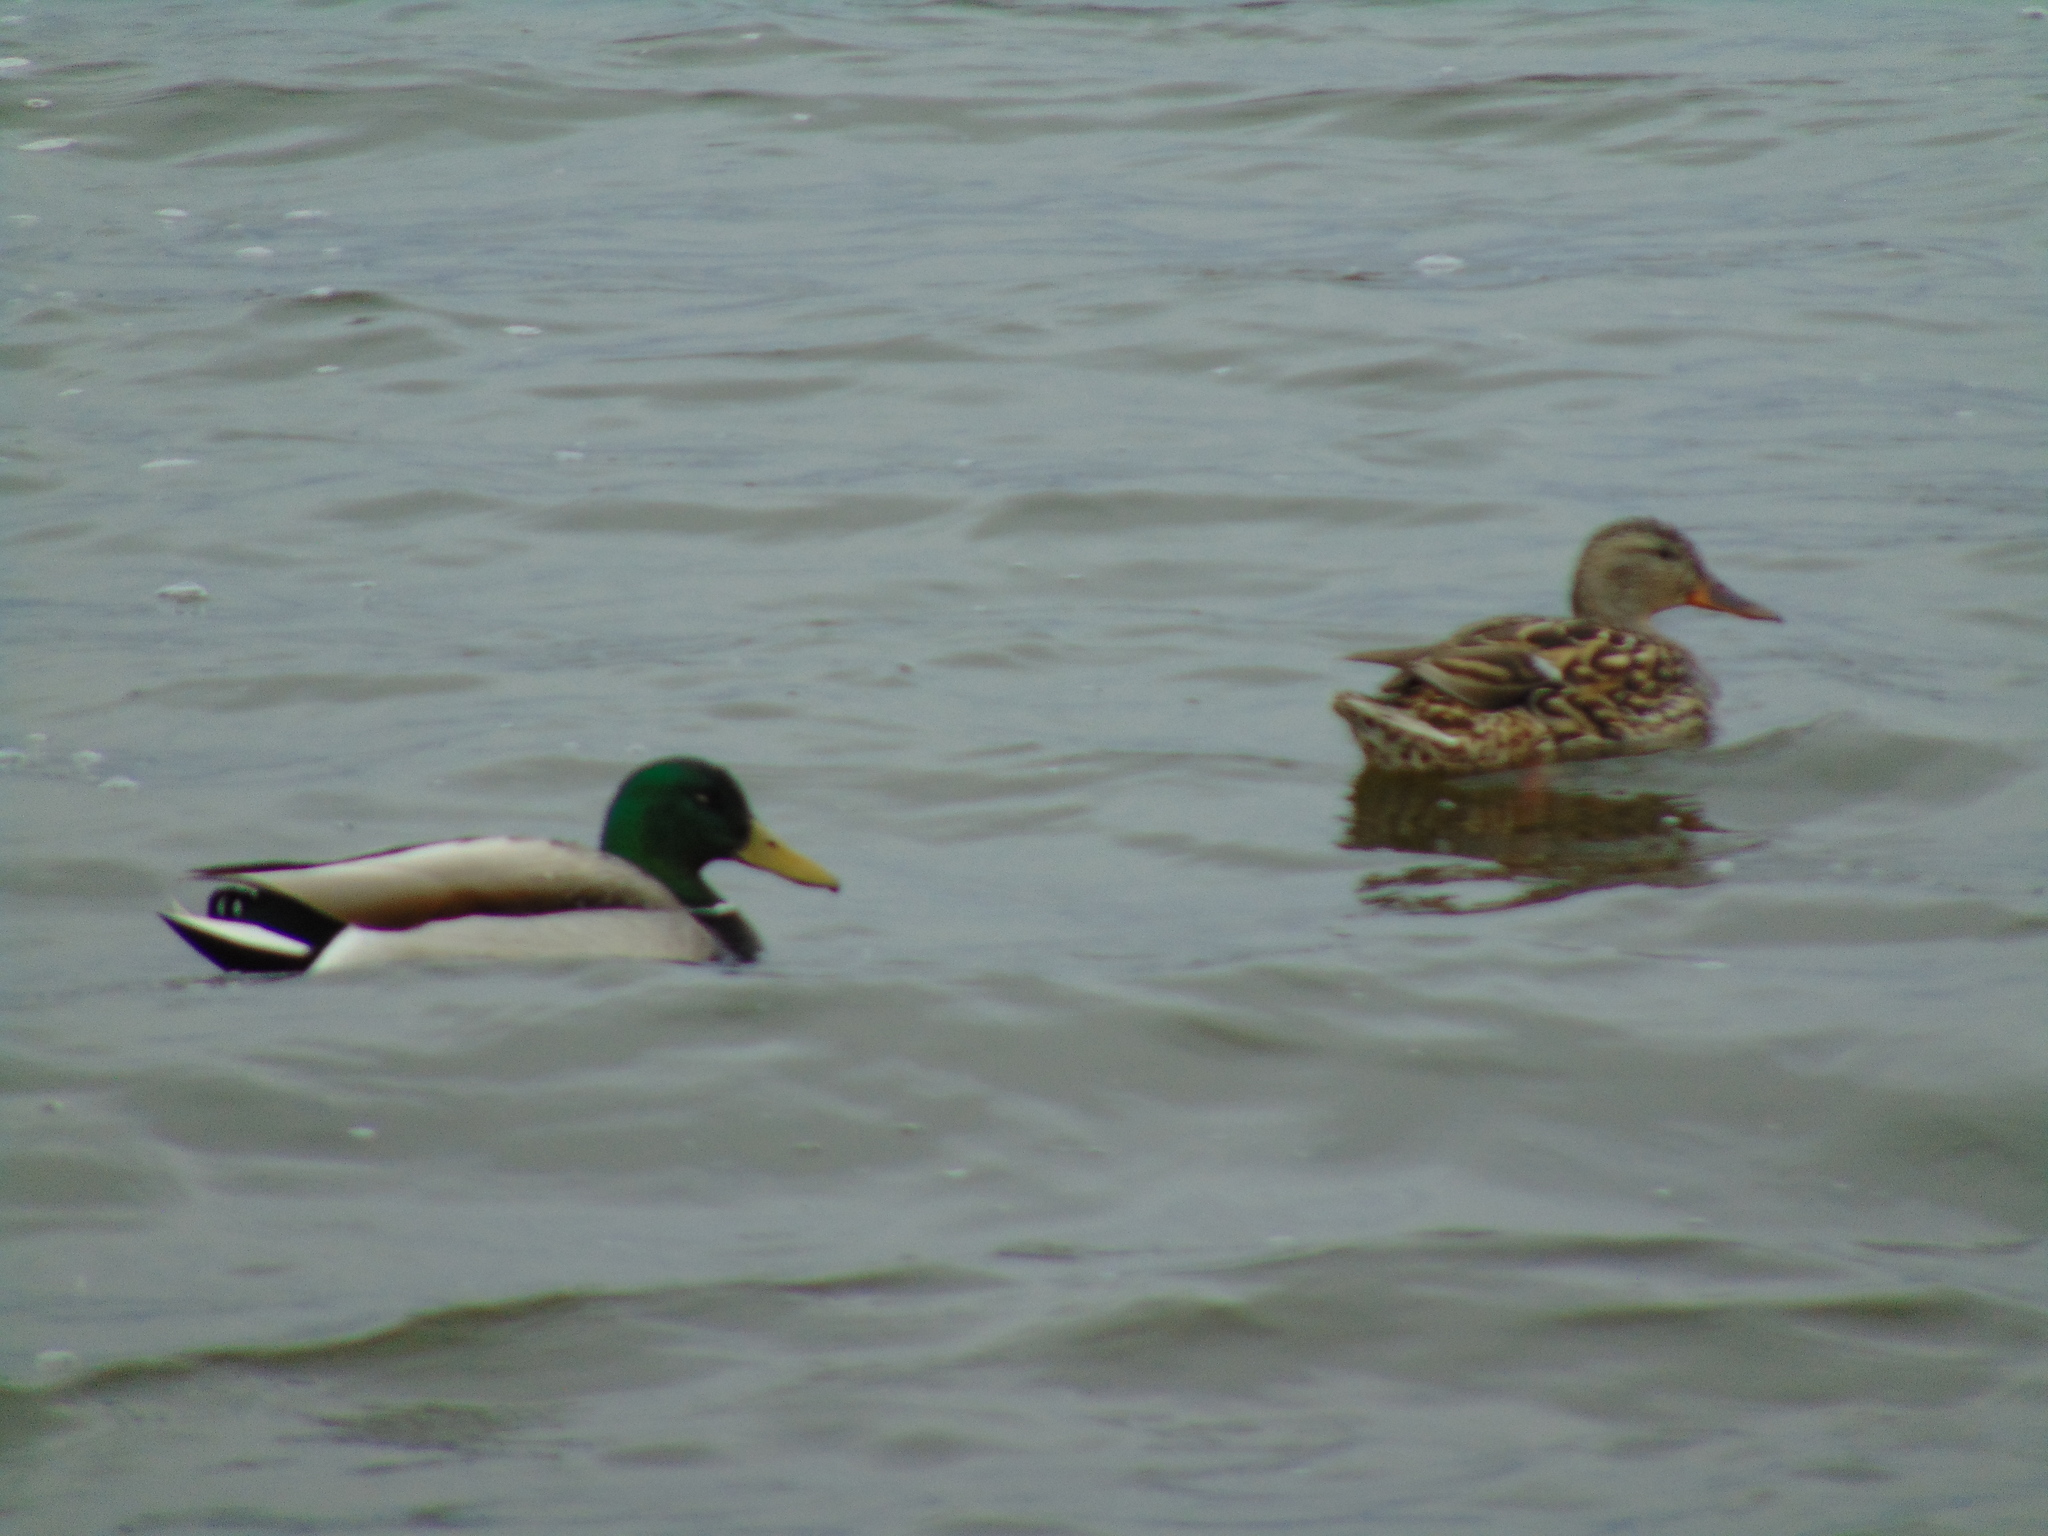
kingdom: Animalia
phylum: Chordata
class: Aves
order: Anseriformes
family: Anatidae
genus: Anas
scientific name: Anas platyrhynchos
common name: Mallard
